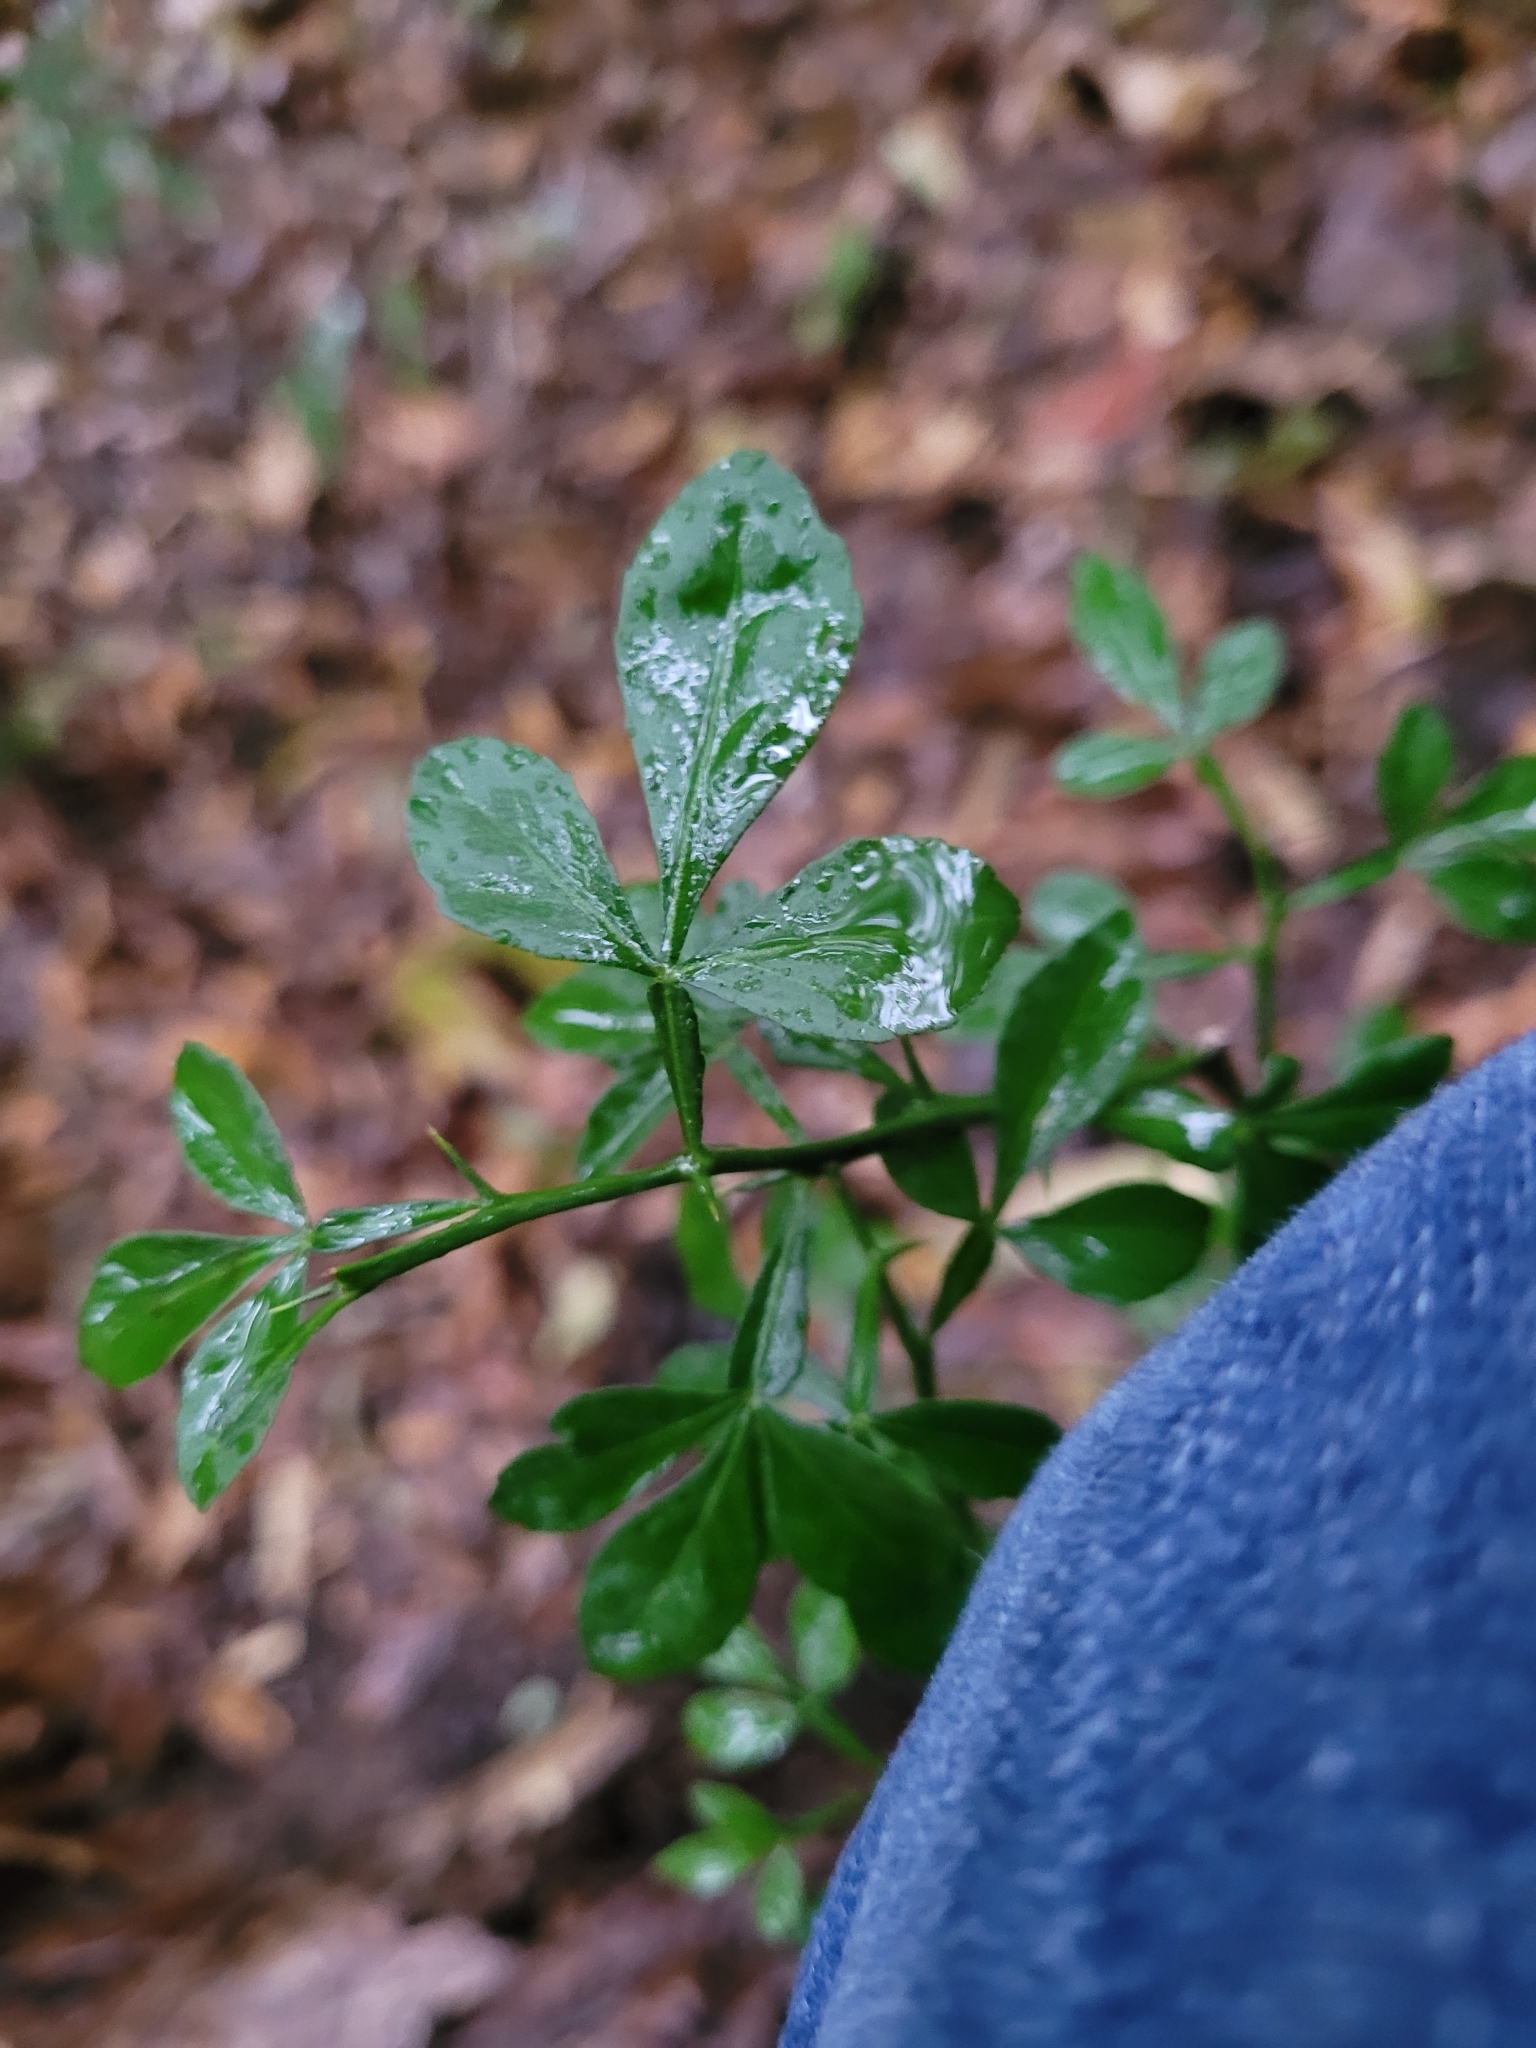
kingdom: Plantae
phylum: Tracheophyta
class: Magnoliopsida
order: Sapindales
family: Rutaceae
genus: Citrus
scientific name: Citrus trifoliata
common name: Japanese bitter-orange
